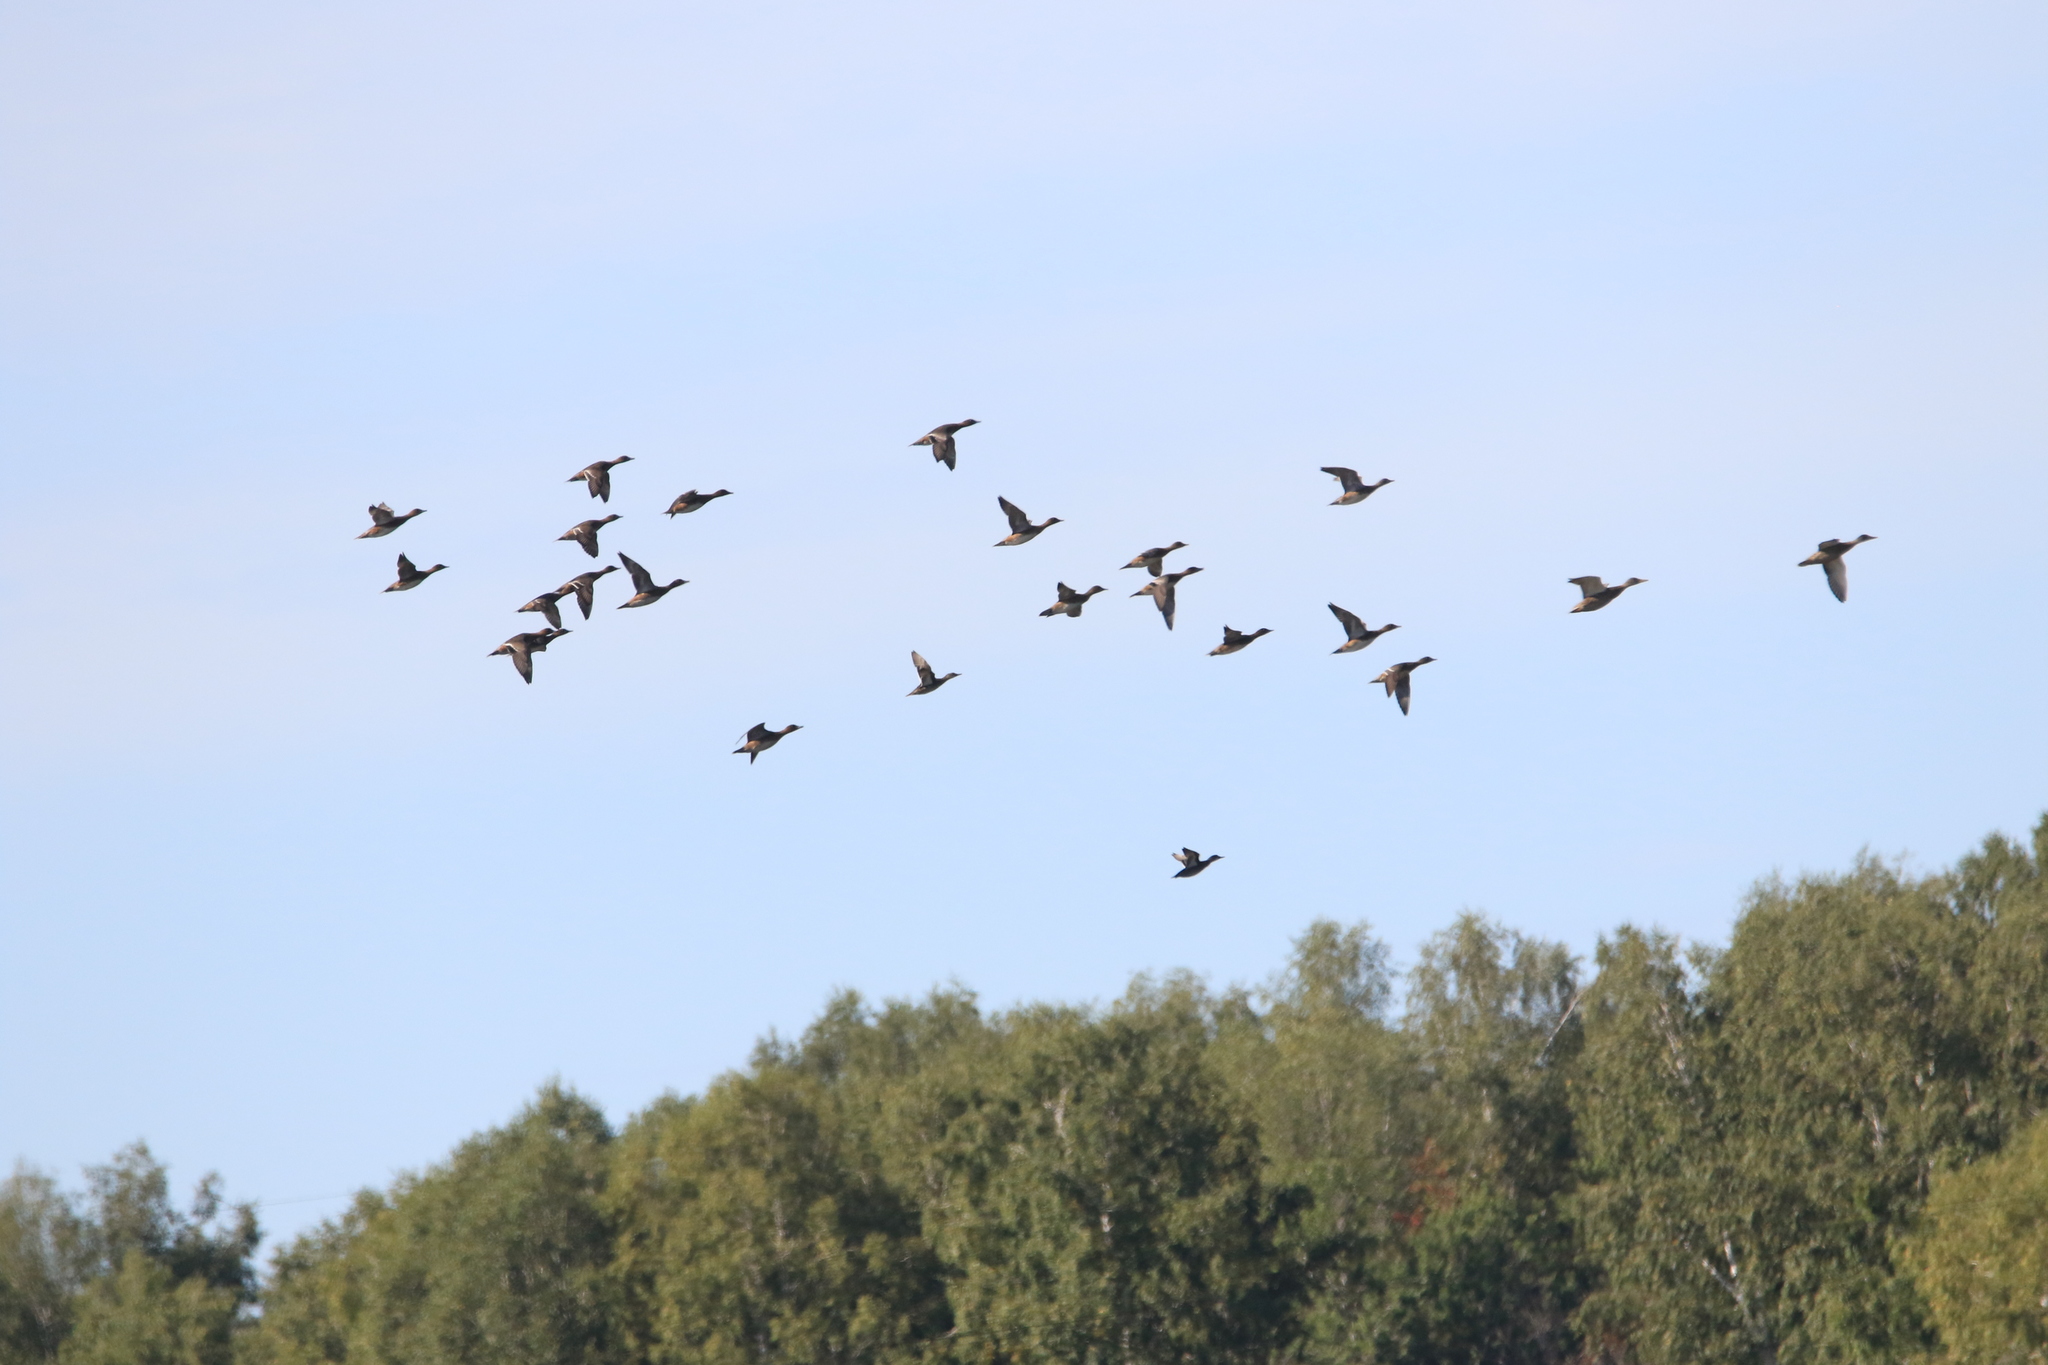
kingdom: Animalia
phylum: Chordata
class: Aves
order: Anseriformes
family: Anatidae
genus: Mareca
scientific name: Mareca penelope
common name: Eurasian wigeon
